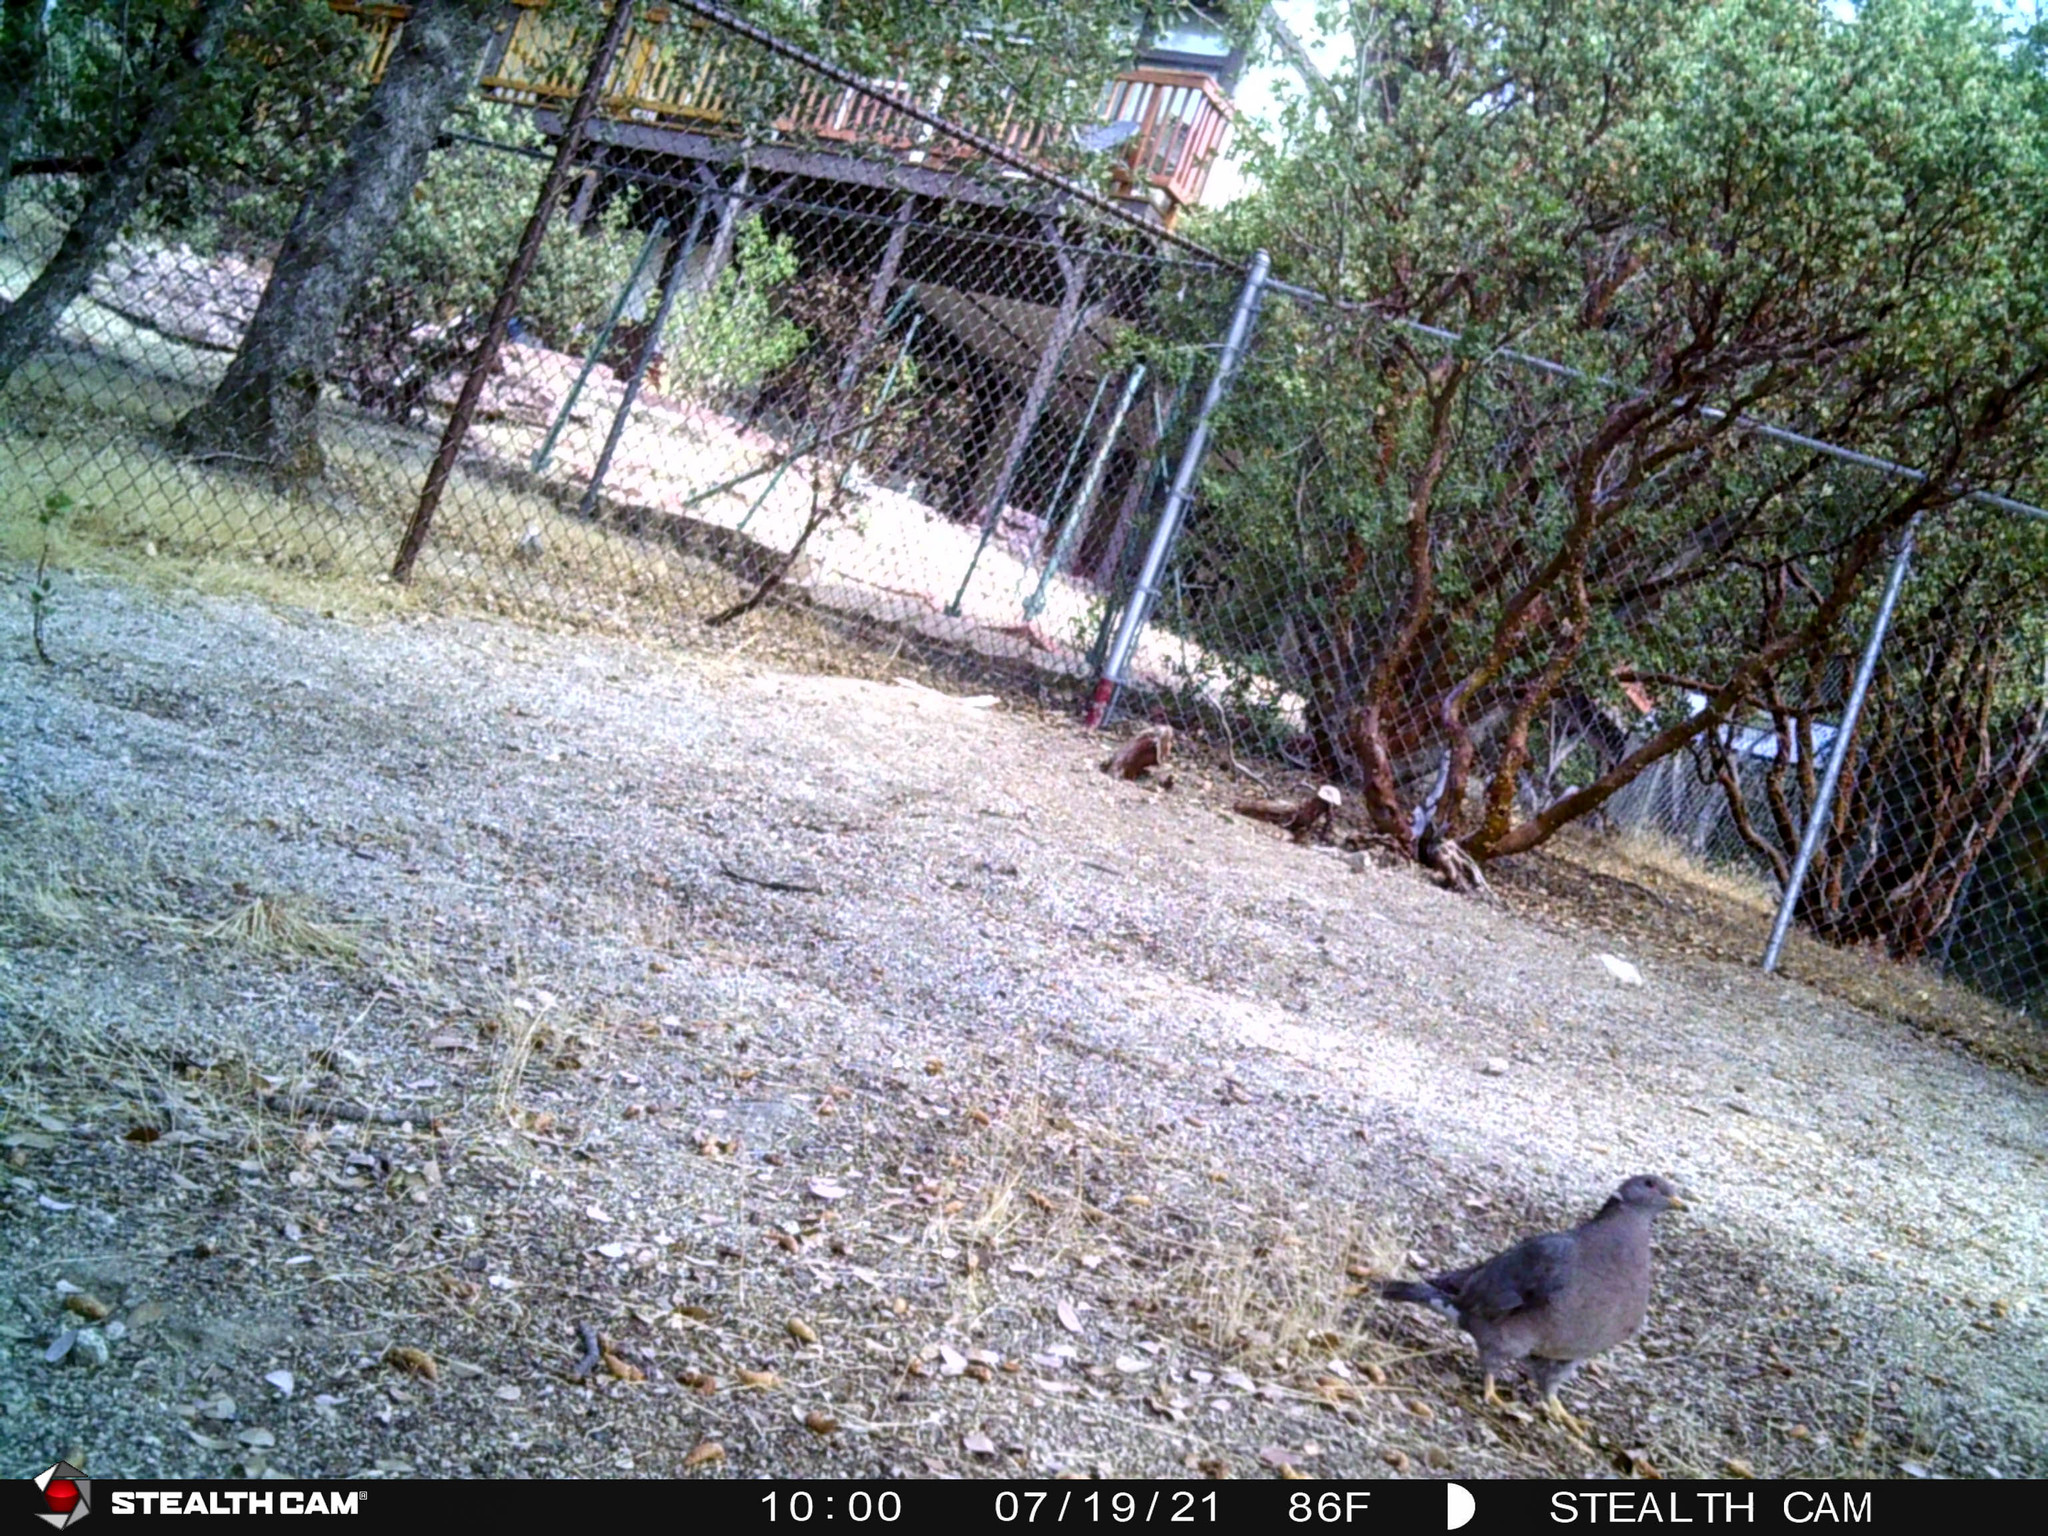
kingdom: Animalia
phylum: Chordata
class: Aves
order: Columbiformes
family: Columbidae
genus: Patagioenas
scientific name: Patagioenas fasciata
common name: Band-tailed pigeon
